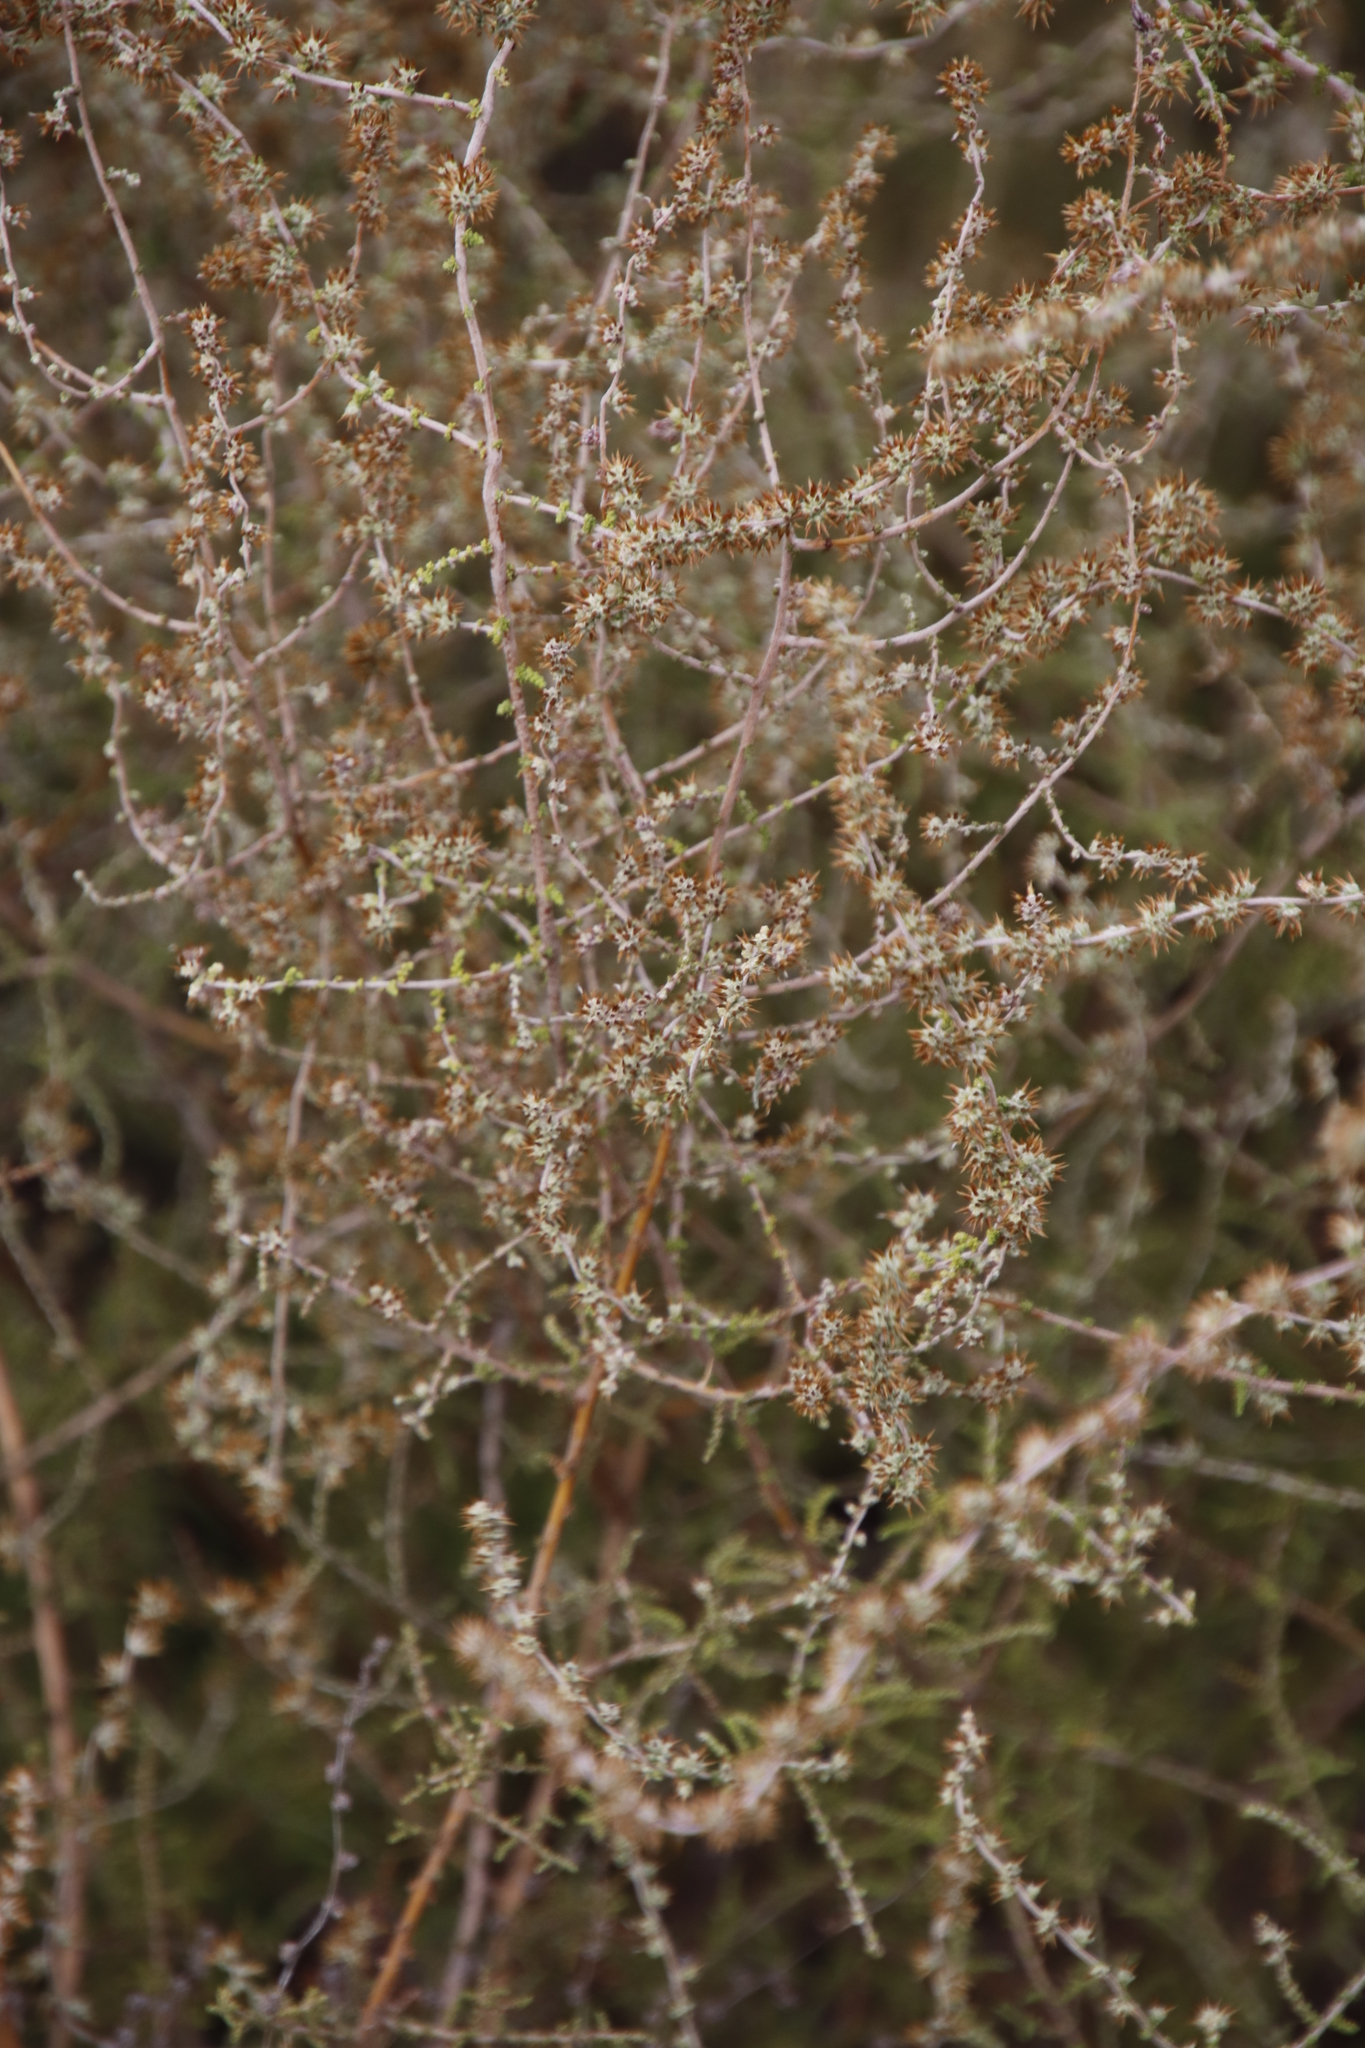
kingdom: Plantae
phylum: Tracheophyta
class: Magnoliopsida
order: Asterales
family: Asteraceae
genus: Seriphium
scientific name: Seriphium plumosum
